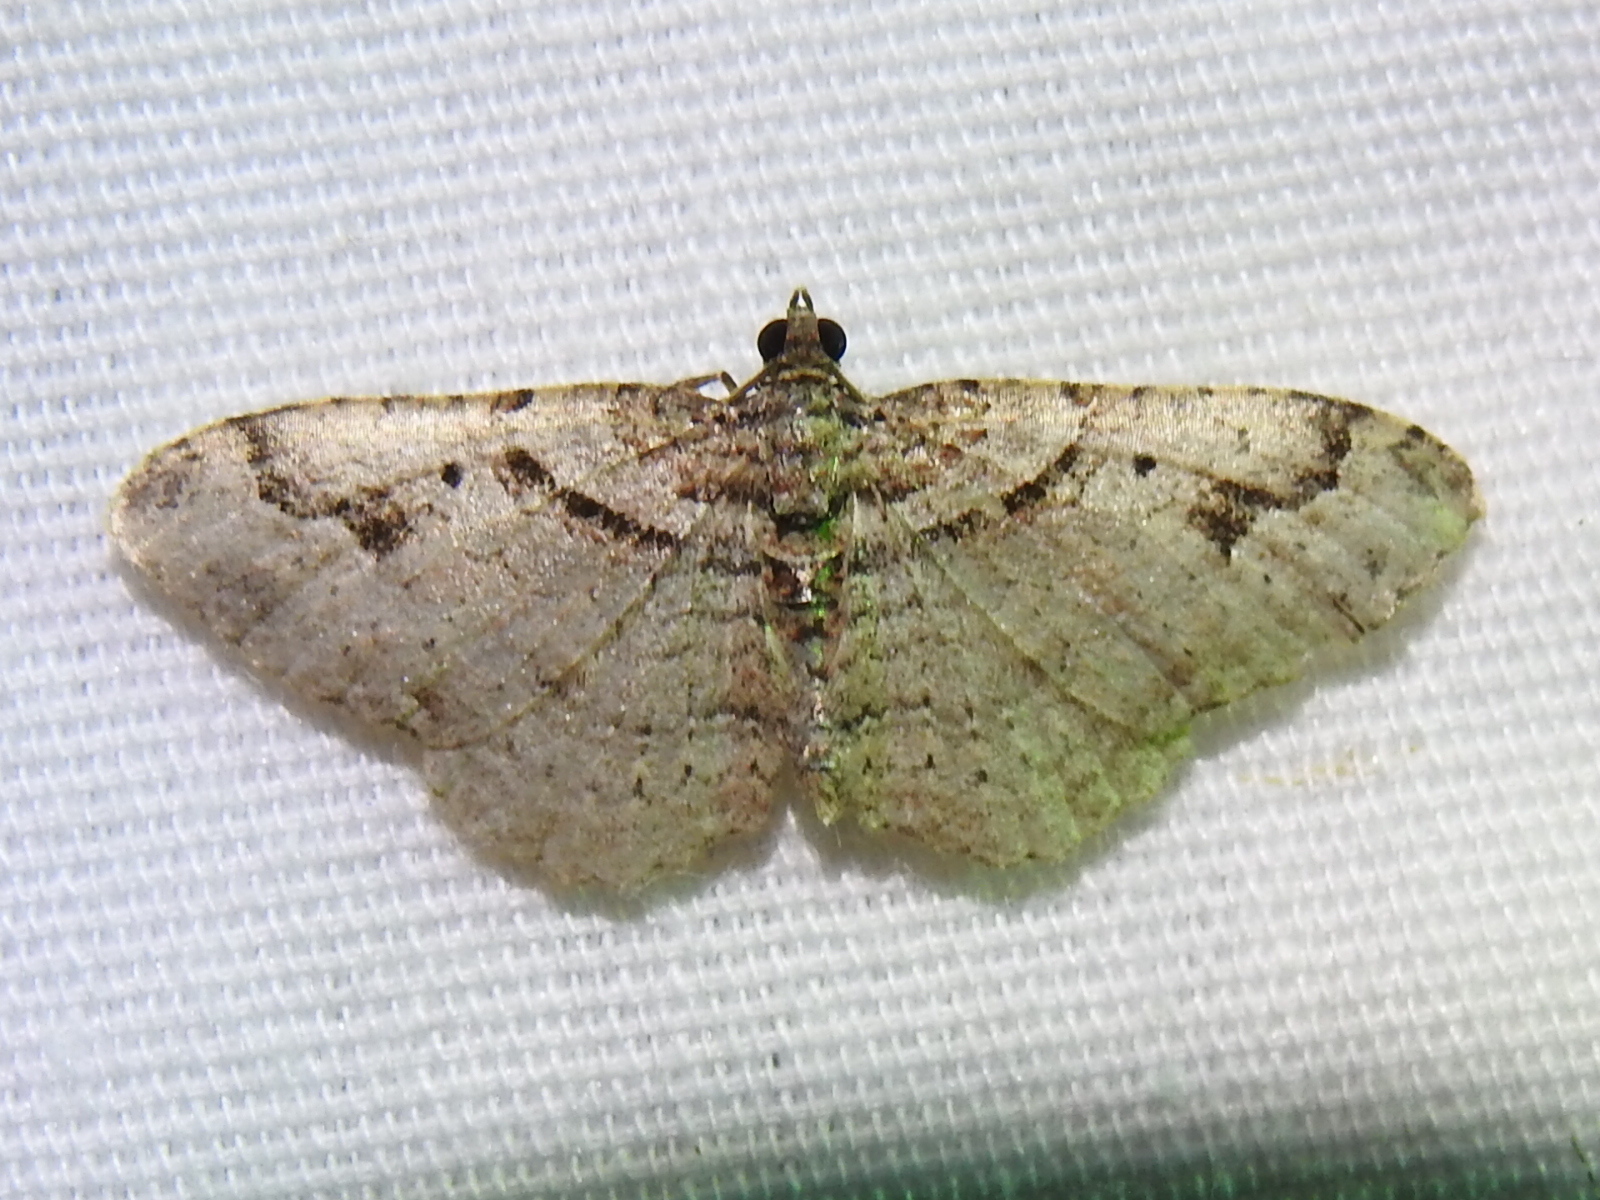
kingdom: Animalia
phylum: Arthropoda
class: Insecta
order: Lepidoptera
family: Geometridae
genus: Costaconvexa
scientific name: Costaconvexa centrostrigaria
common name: Bent-line carpet
